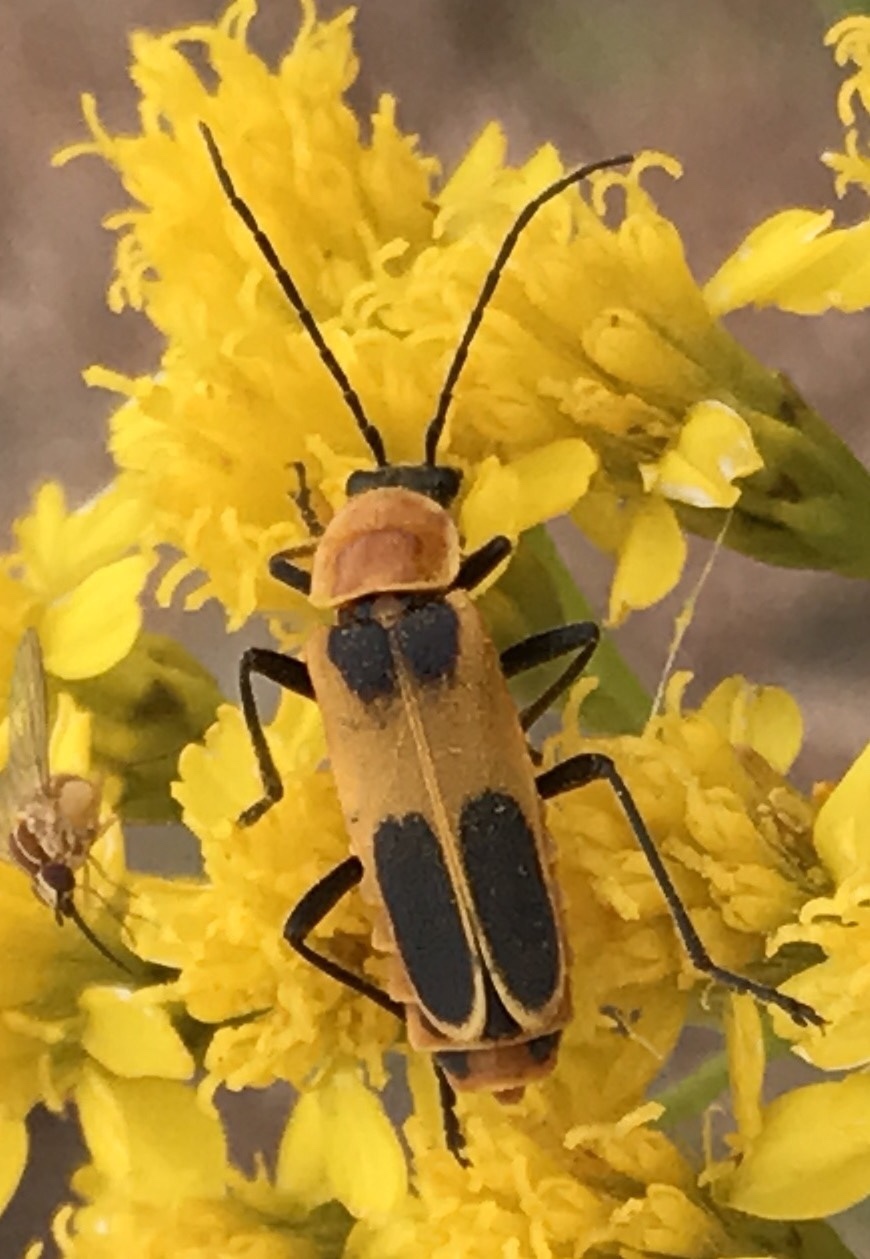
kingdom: Animalia
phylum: Arthropoda
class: Insecta
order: Coleoptera
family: Cantharidae
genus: Chauliognathus
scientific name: Chauliognathus omissus
